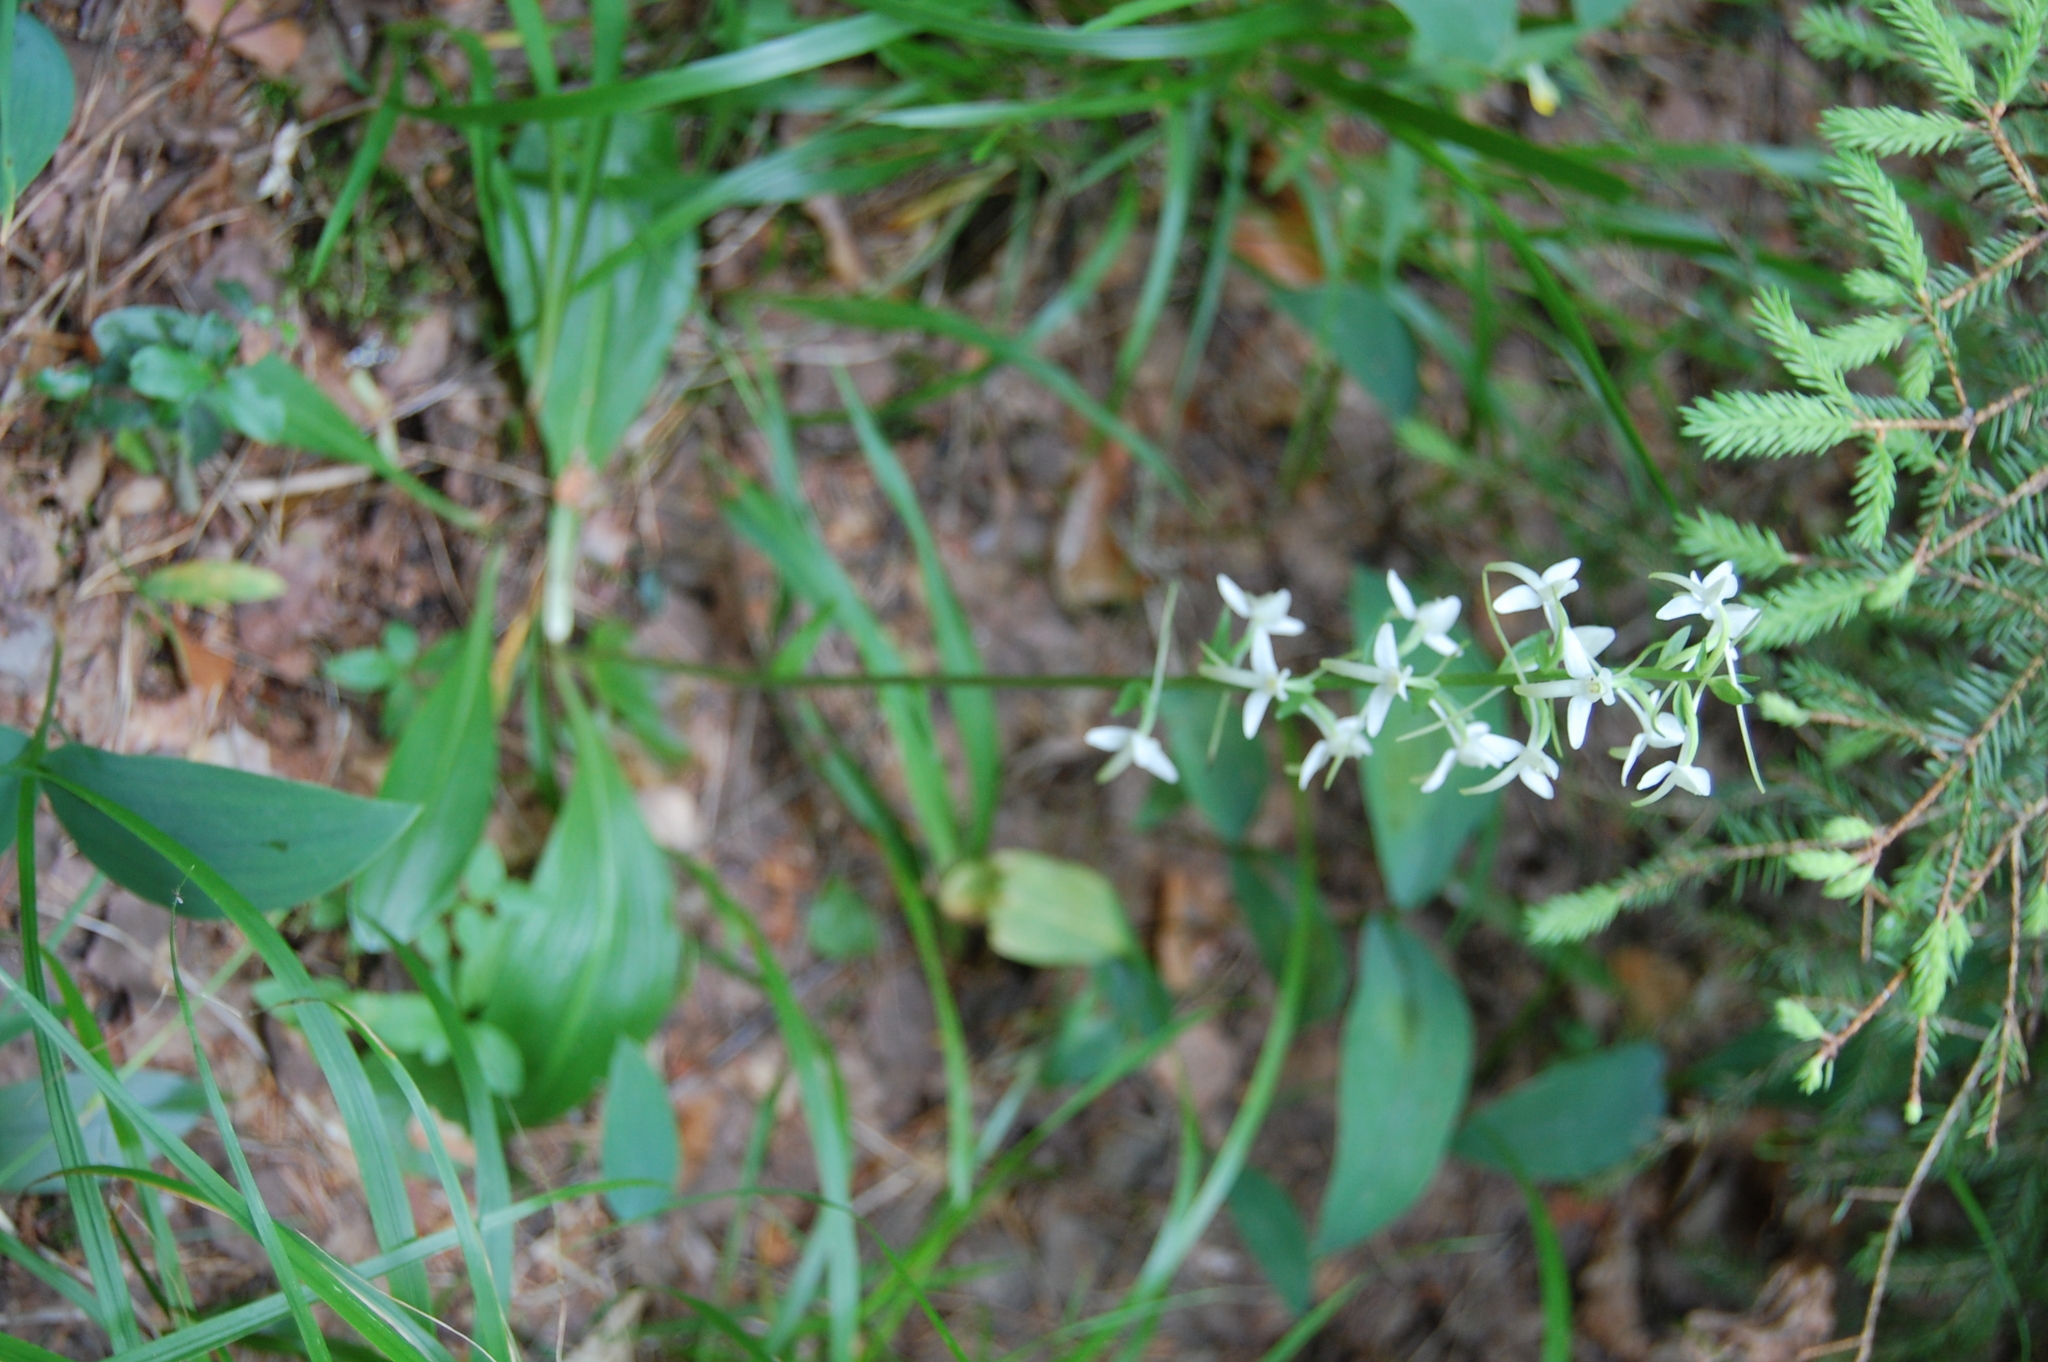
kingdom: Plantae
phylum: Tracheophyta
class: Liliopsida
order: Asparagales
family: Orchidaceae
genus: Platanthera
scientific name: Platanthera bifolia
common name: Lesser butterfly-orchid
